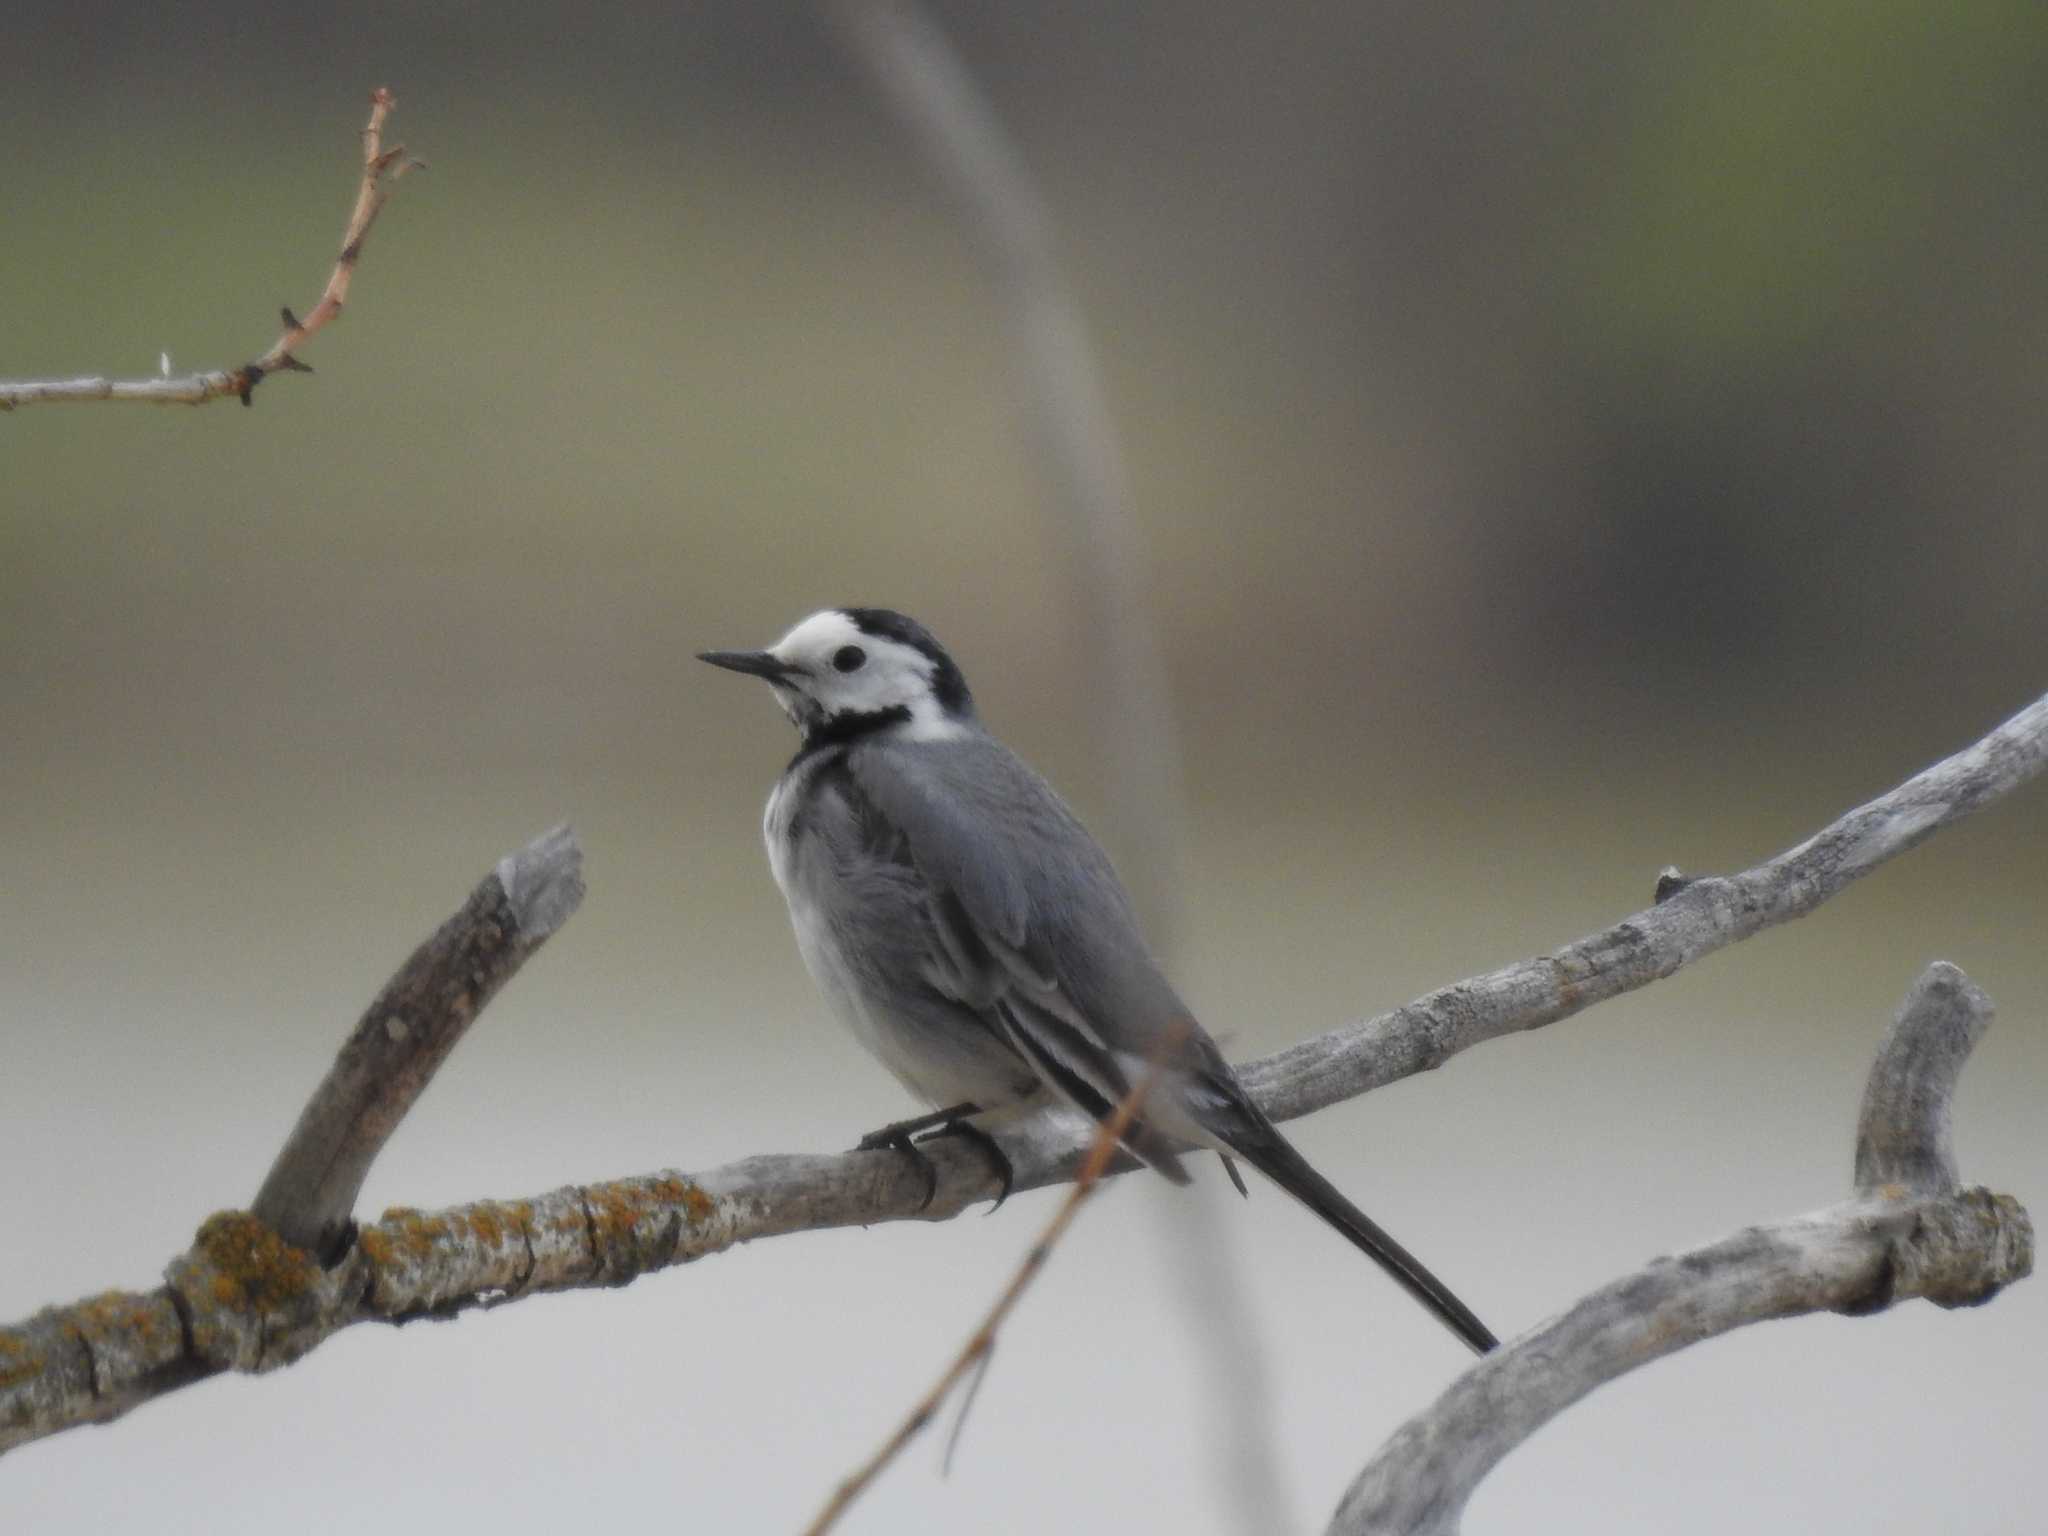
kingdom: Animalia
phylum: Chordata
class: Aves
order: Passeriformes
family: Motacillidae
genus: Motacilla
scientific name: Motacilla alba
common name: White wagtail
